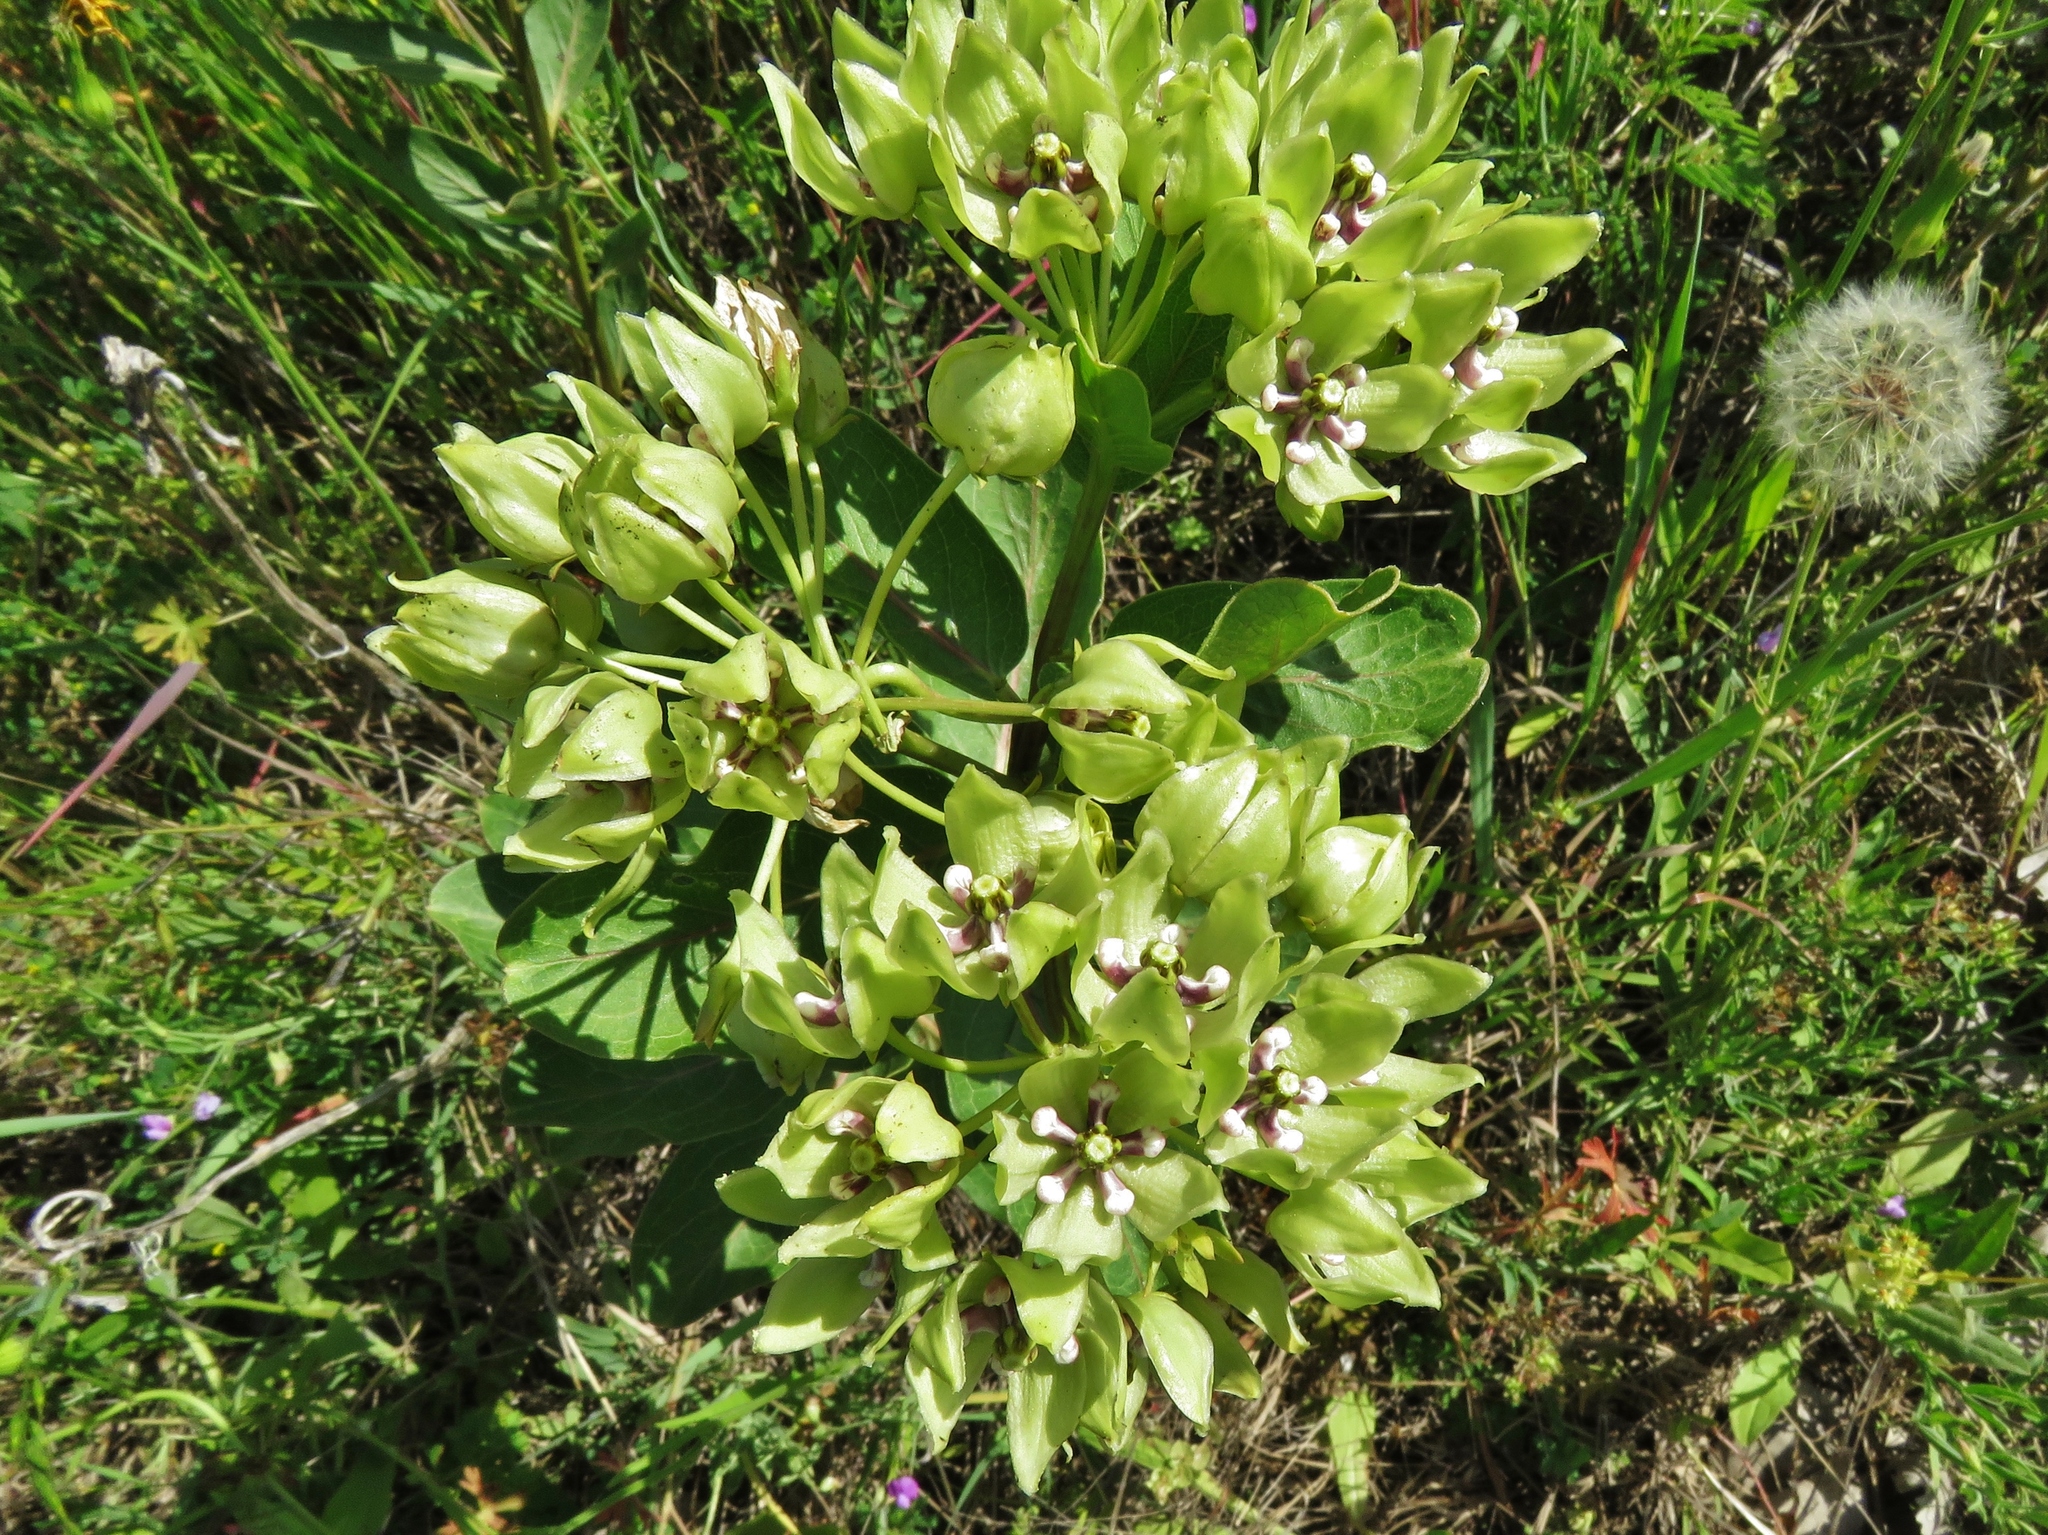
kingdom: Plantae
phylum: Tracheophyta
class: Magnoliopsida
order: Gentianales
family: Apocynaceae
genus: Asclepias
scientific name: Asclepias viridis
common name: Antelope-horns
